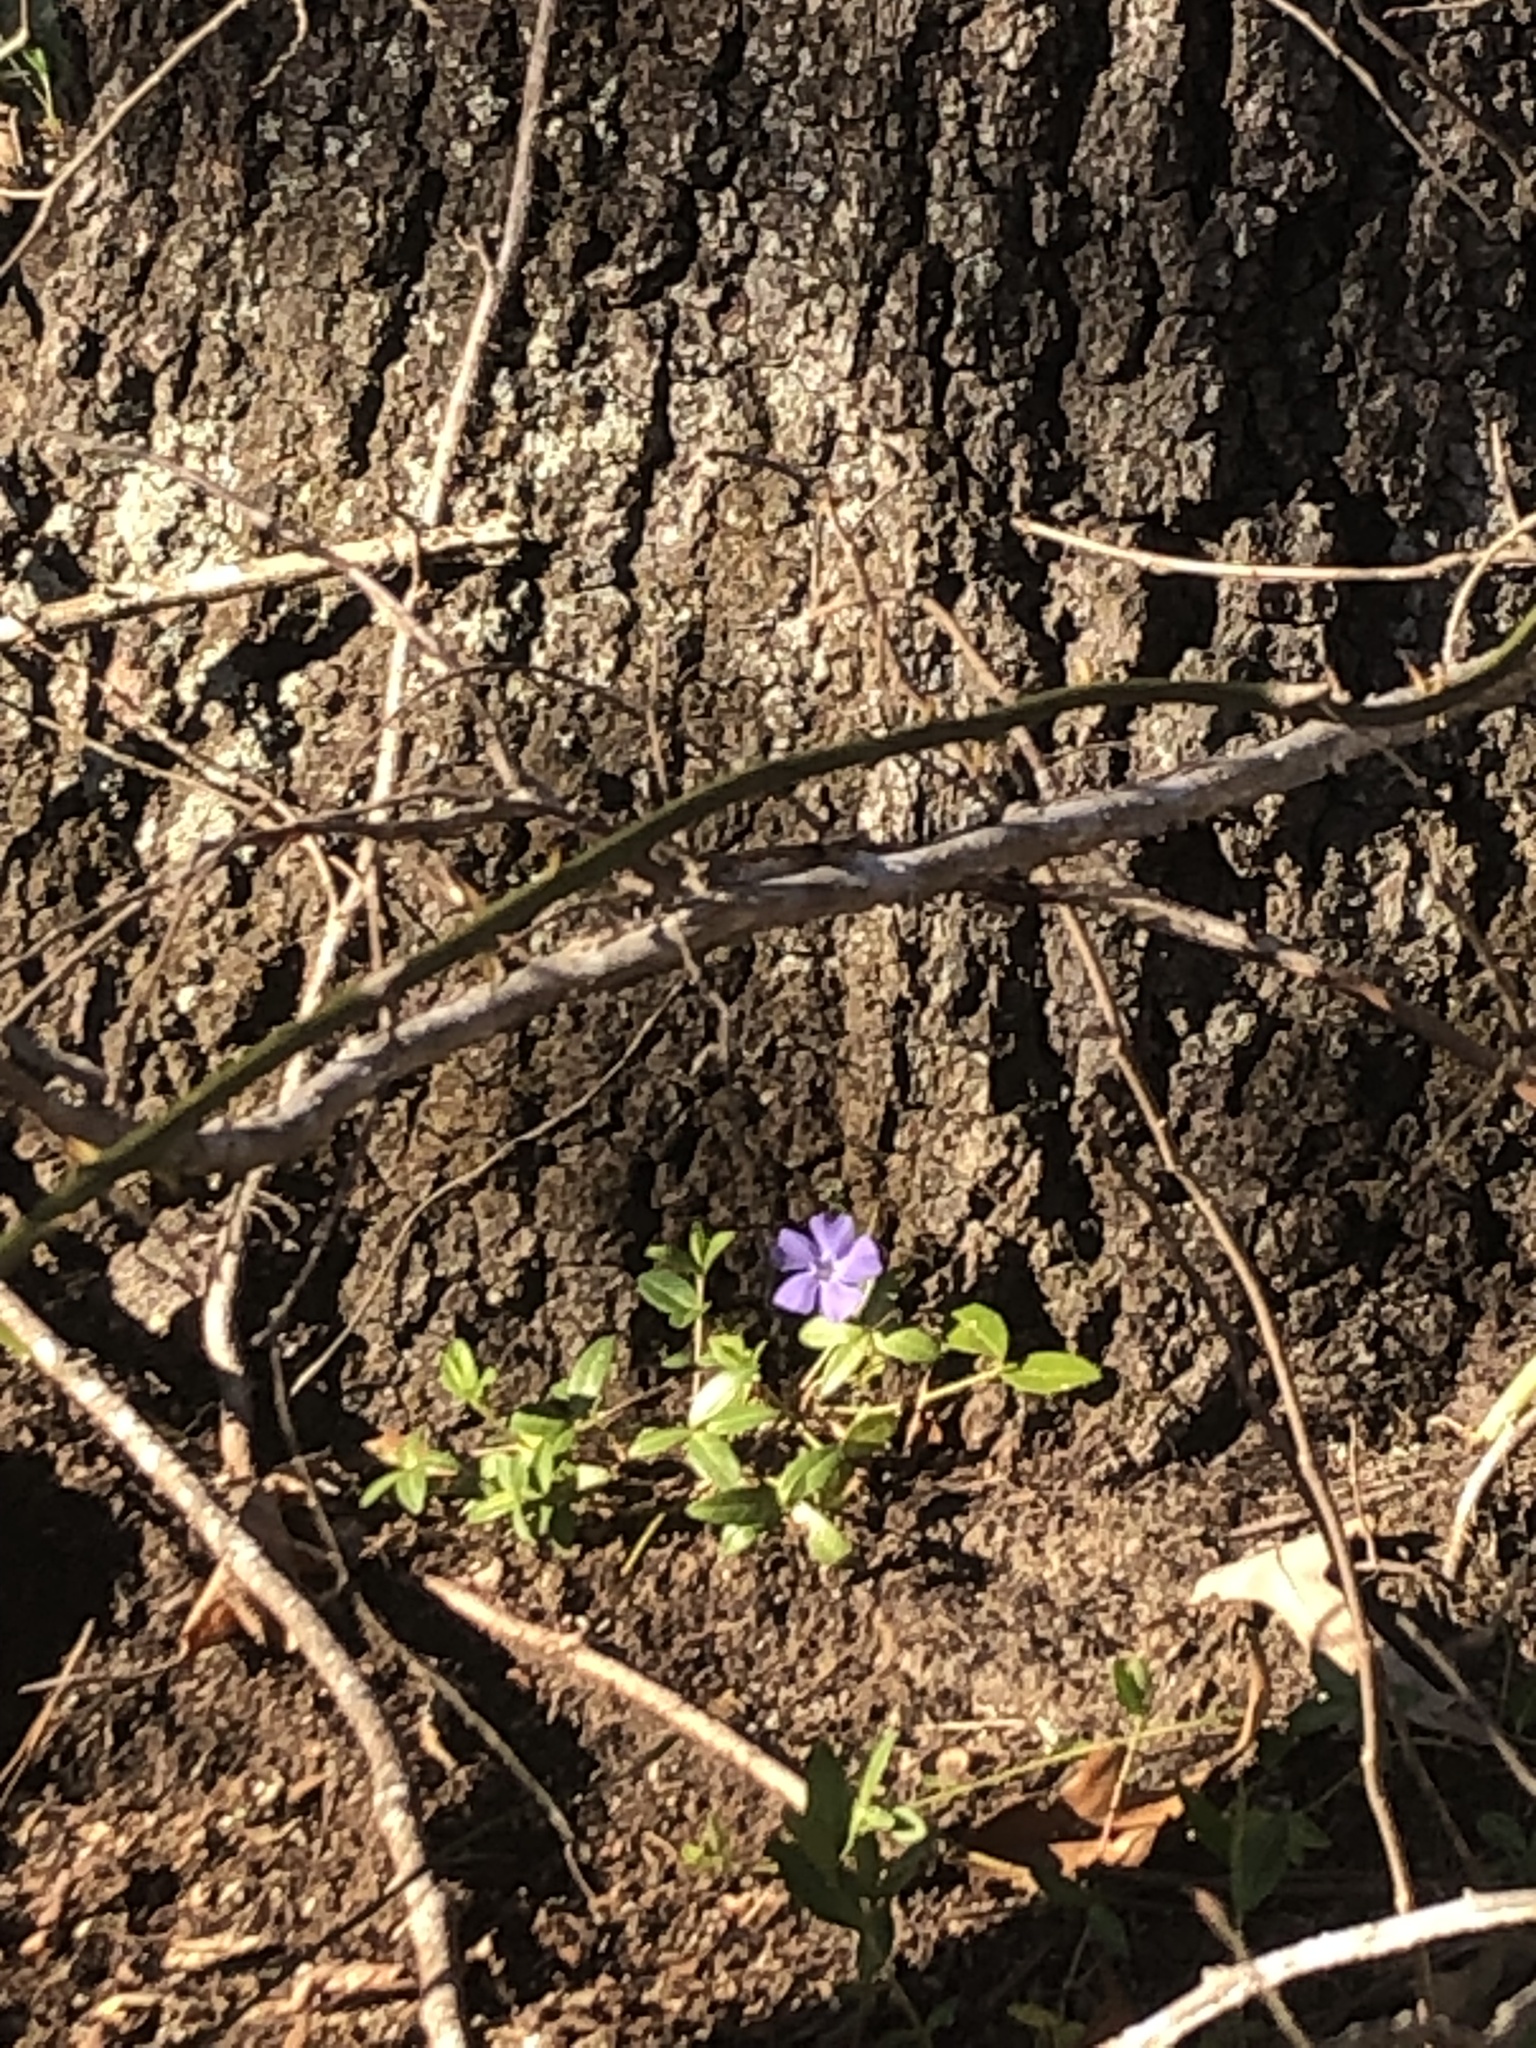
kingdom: Plantae
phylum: Tracheophyta
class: Magnoliopsida
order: Gentianales
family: Apocynaceae
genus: Vinca
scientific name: Vinca minor
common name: Lesser periwinkle
